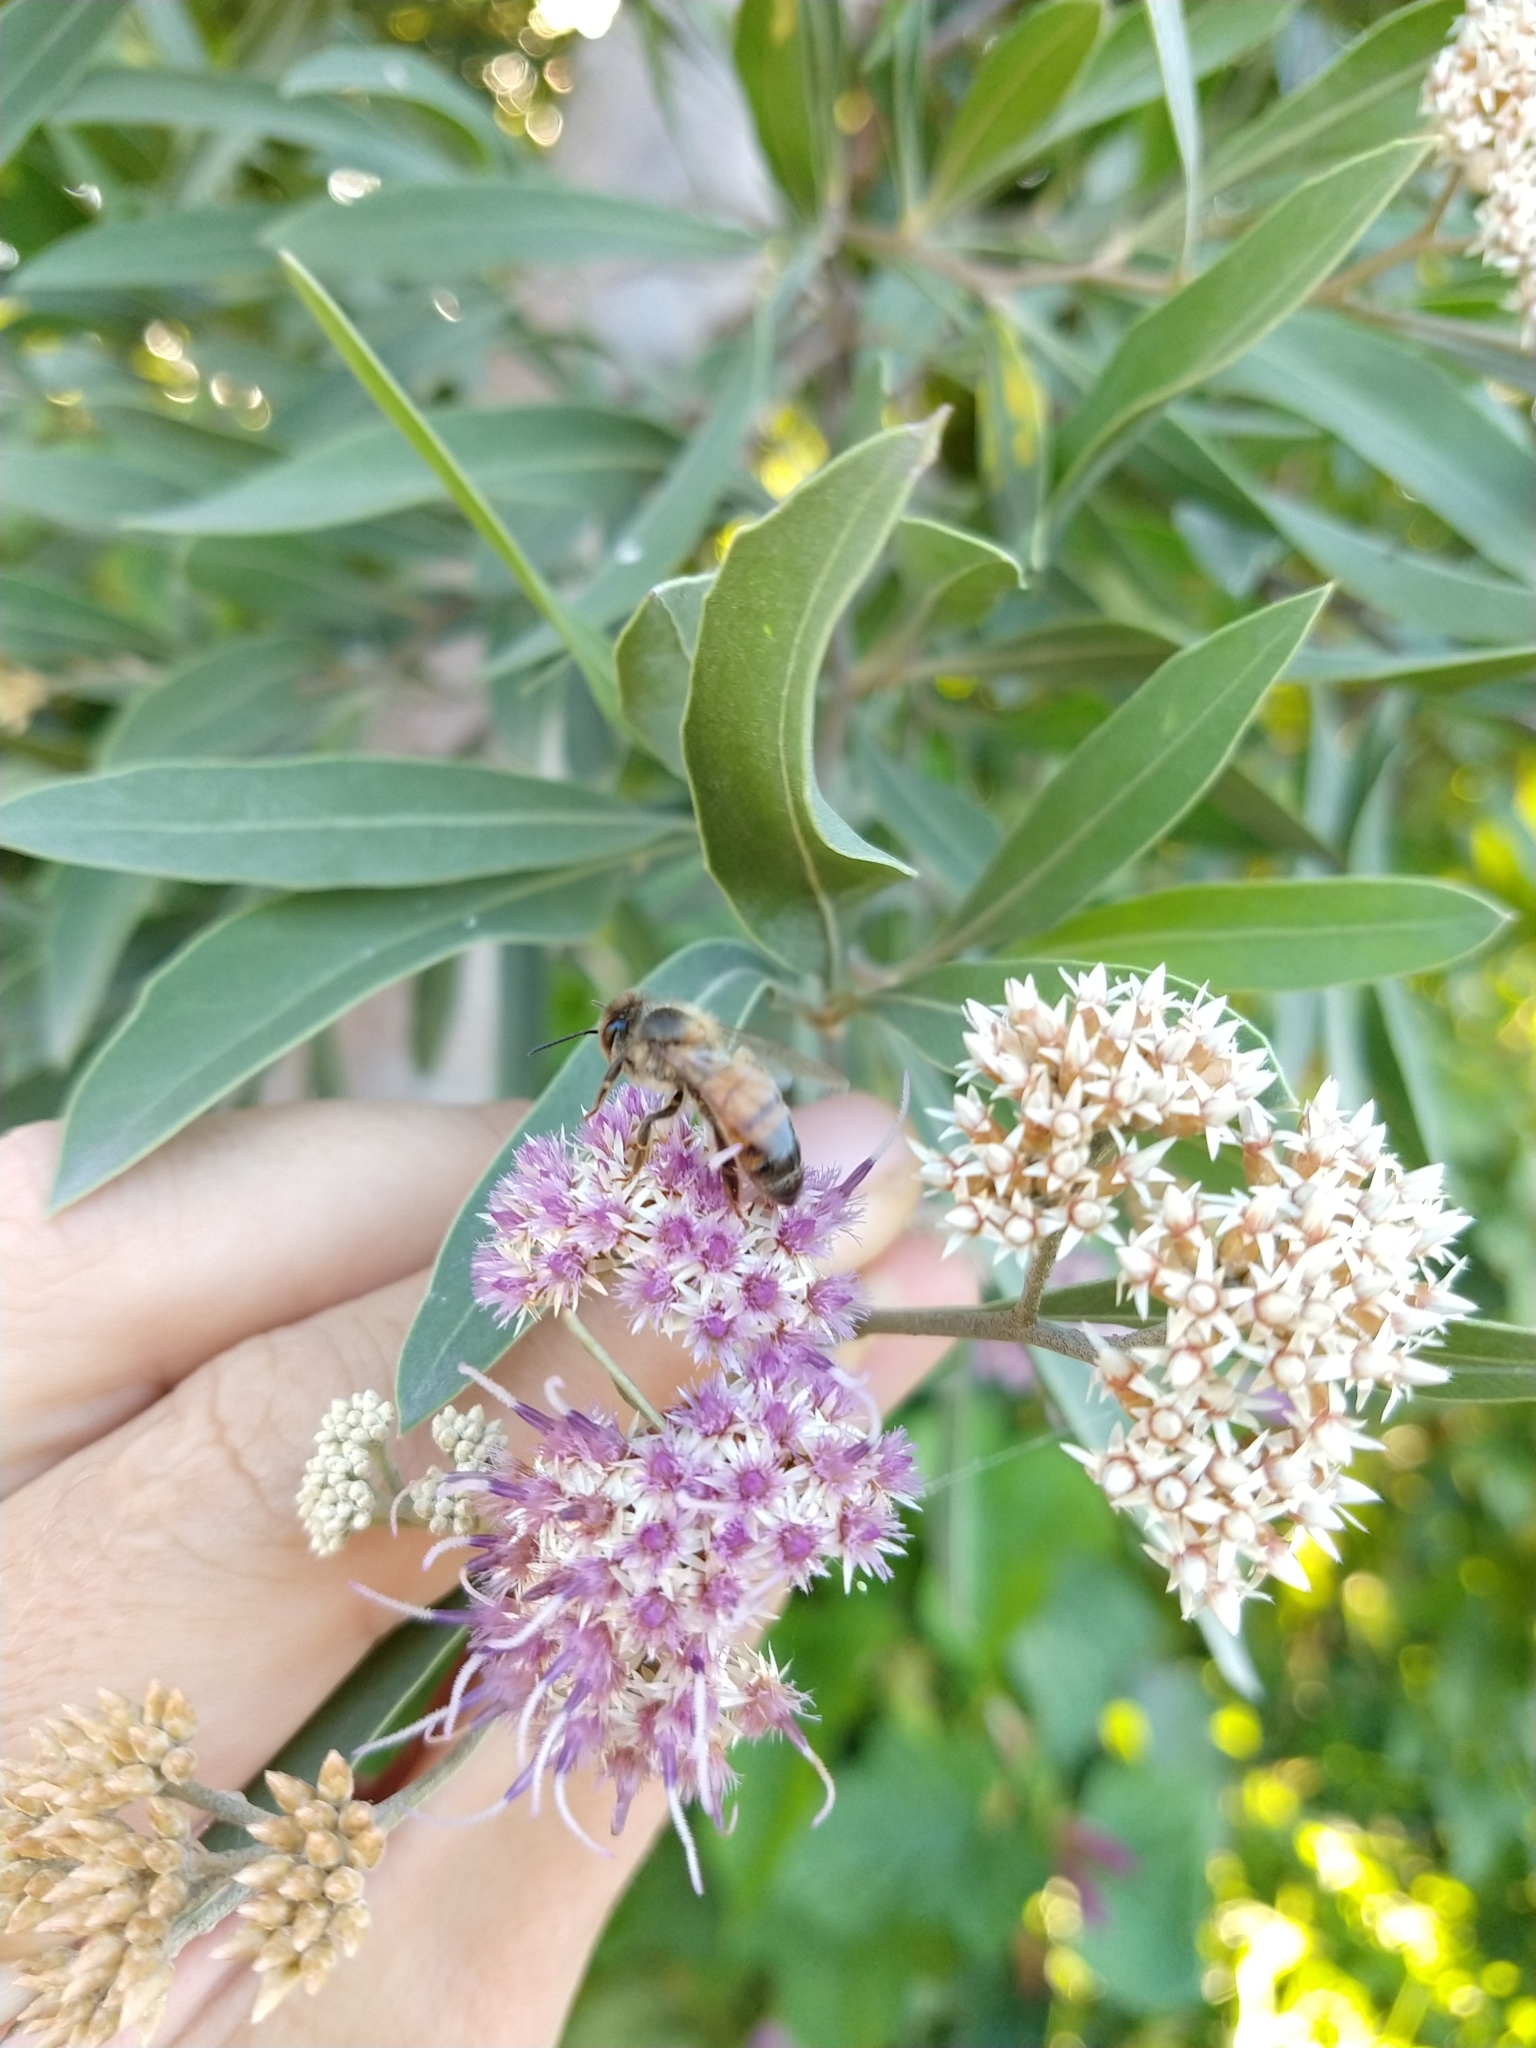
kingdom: Animalia
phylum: Arthropoda
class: Insecta
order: Hymenoptera
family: Apidae
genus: Apis
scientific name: Apis mellifera
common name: Honey bee
